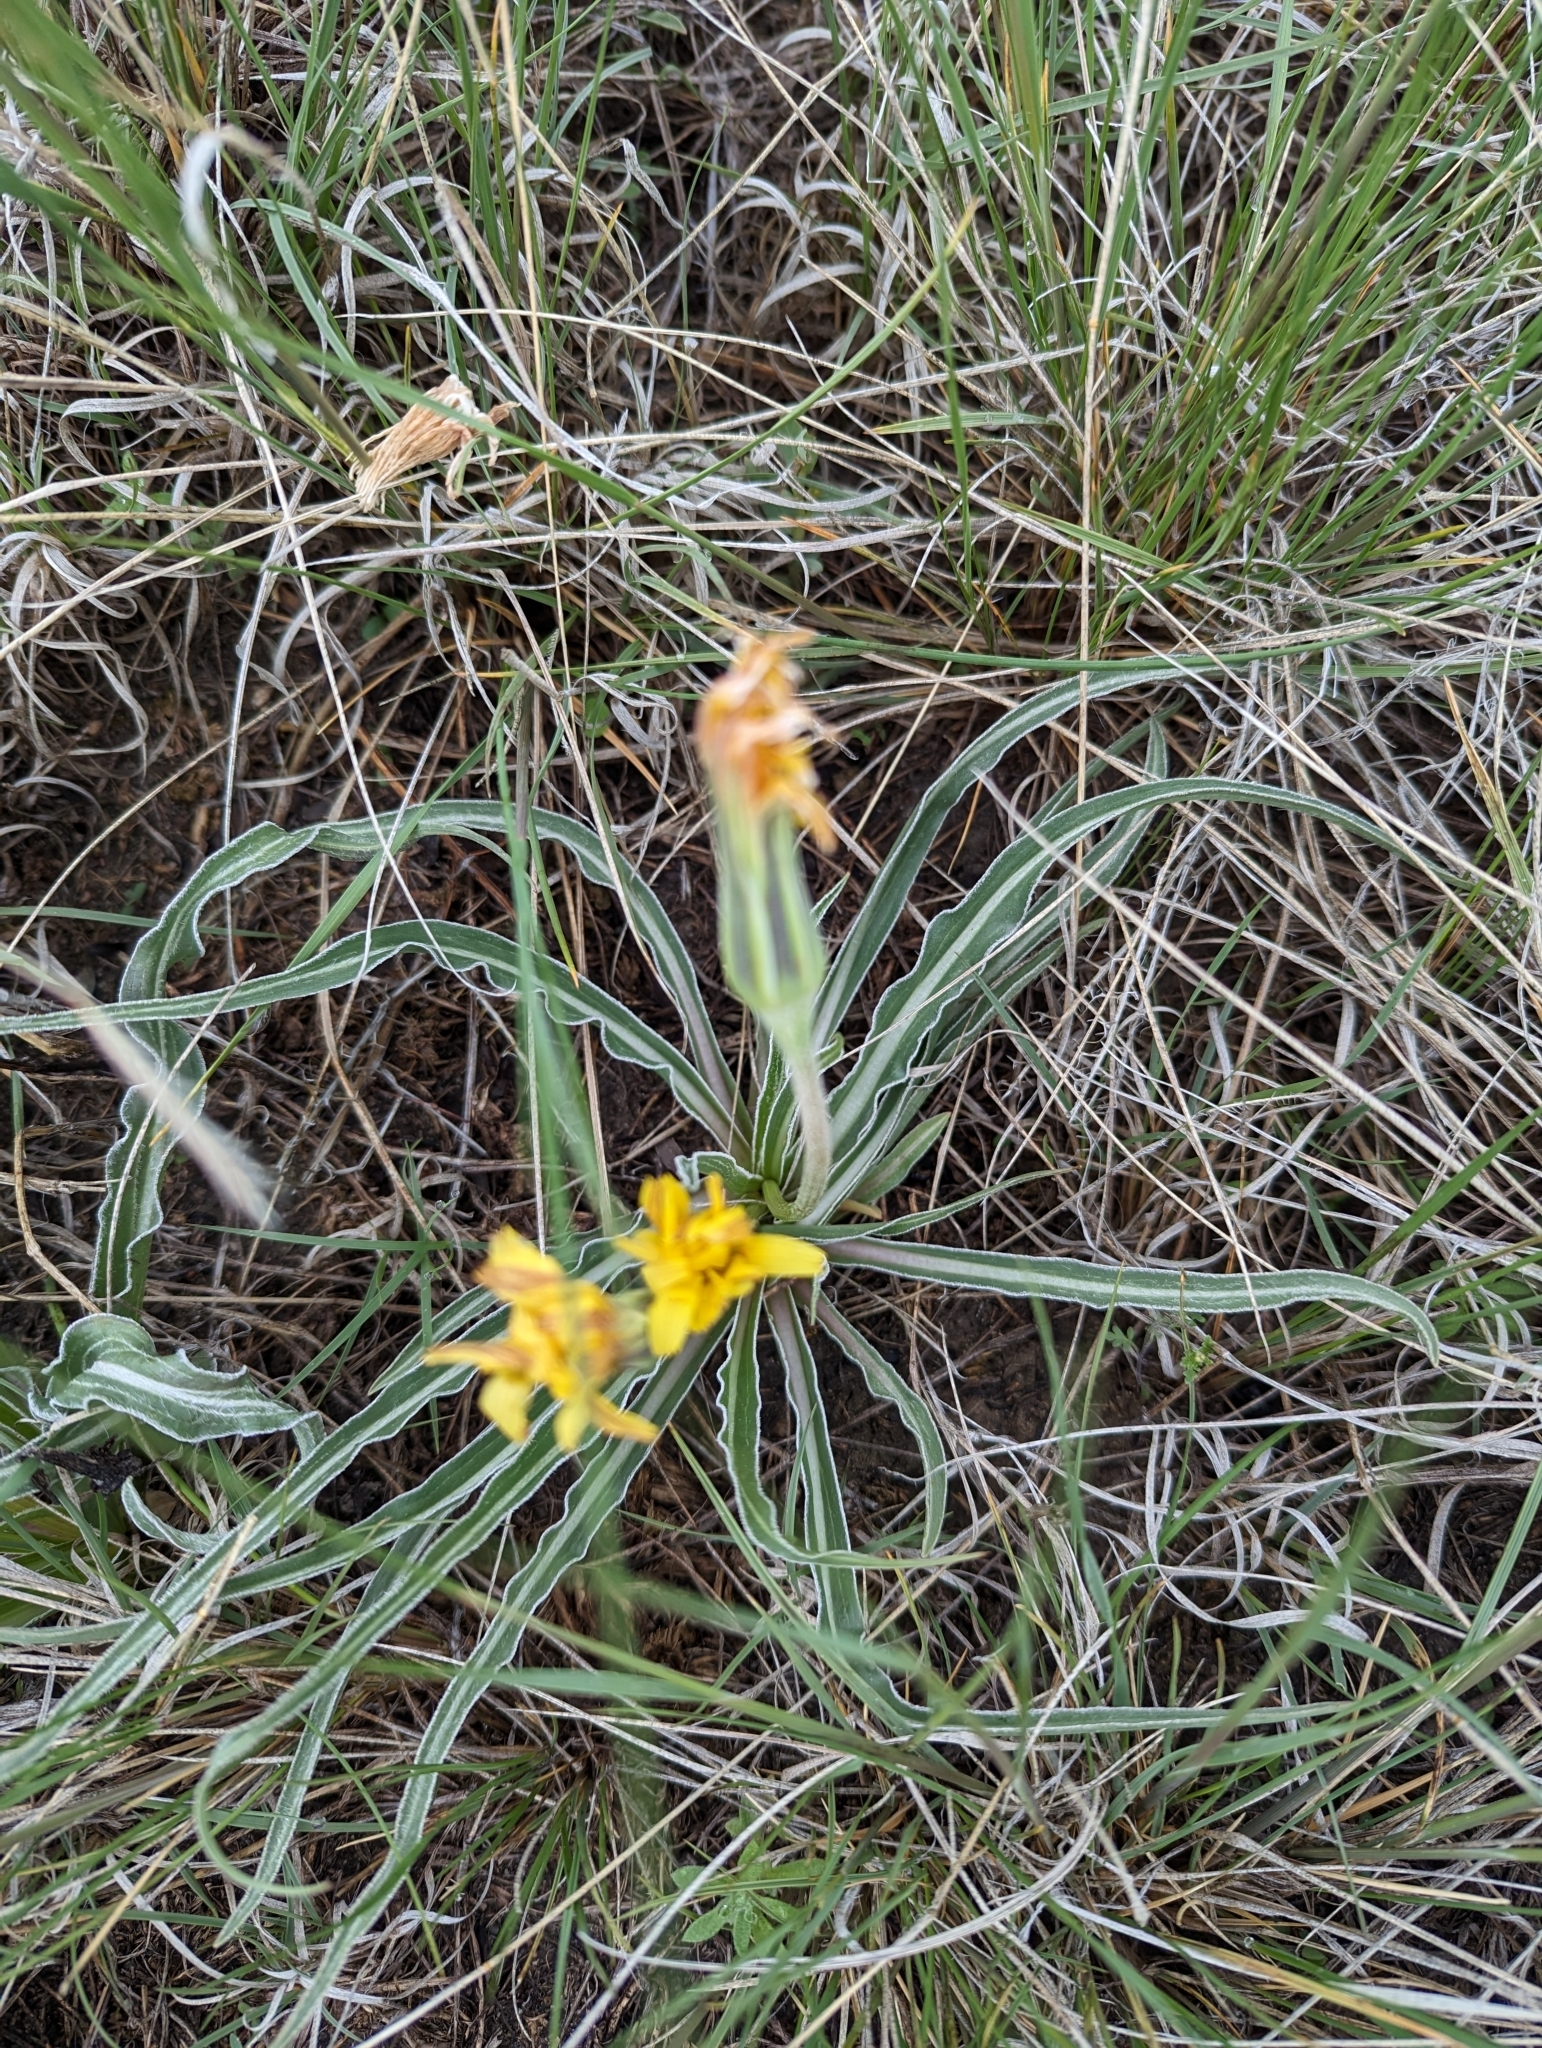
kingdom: Plantae
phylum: Tracheophyta
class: Magnoliopsida
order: Asterales
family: Asteraceae
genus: Microseris
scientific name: Microseris cuspidata
